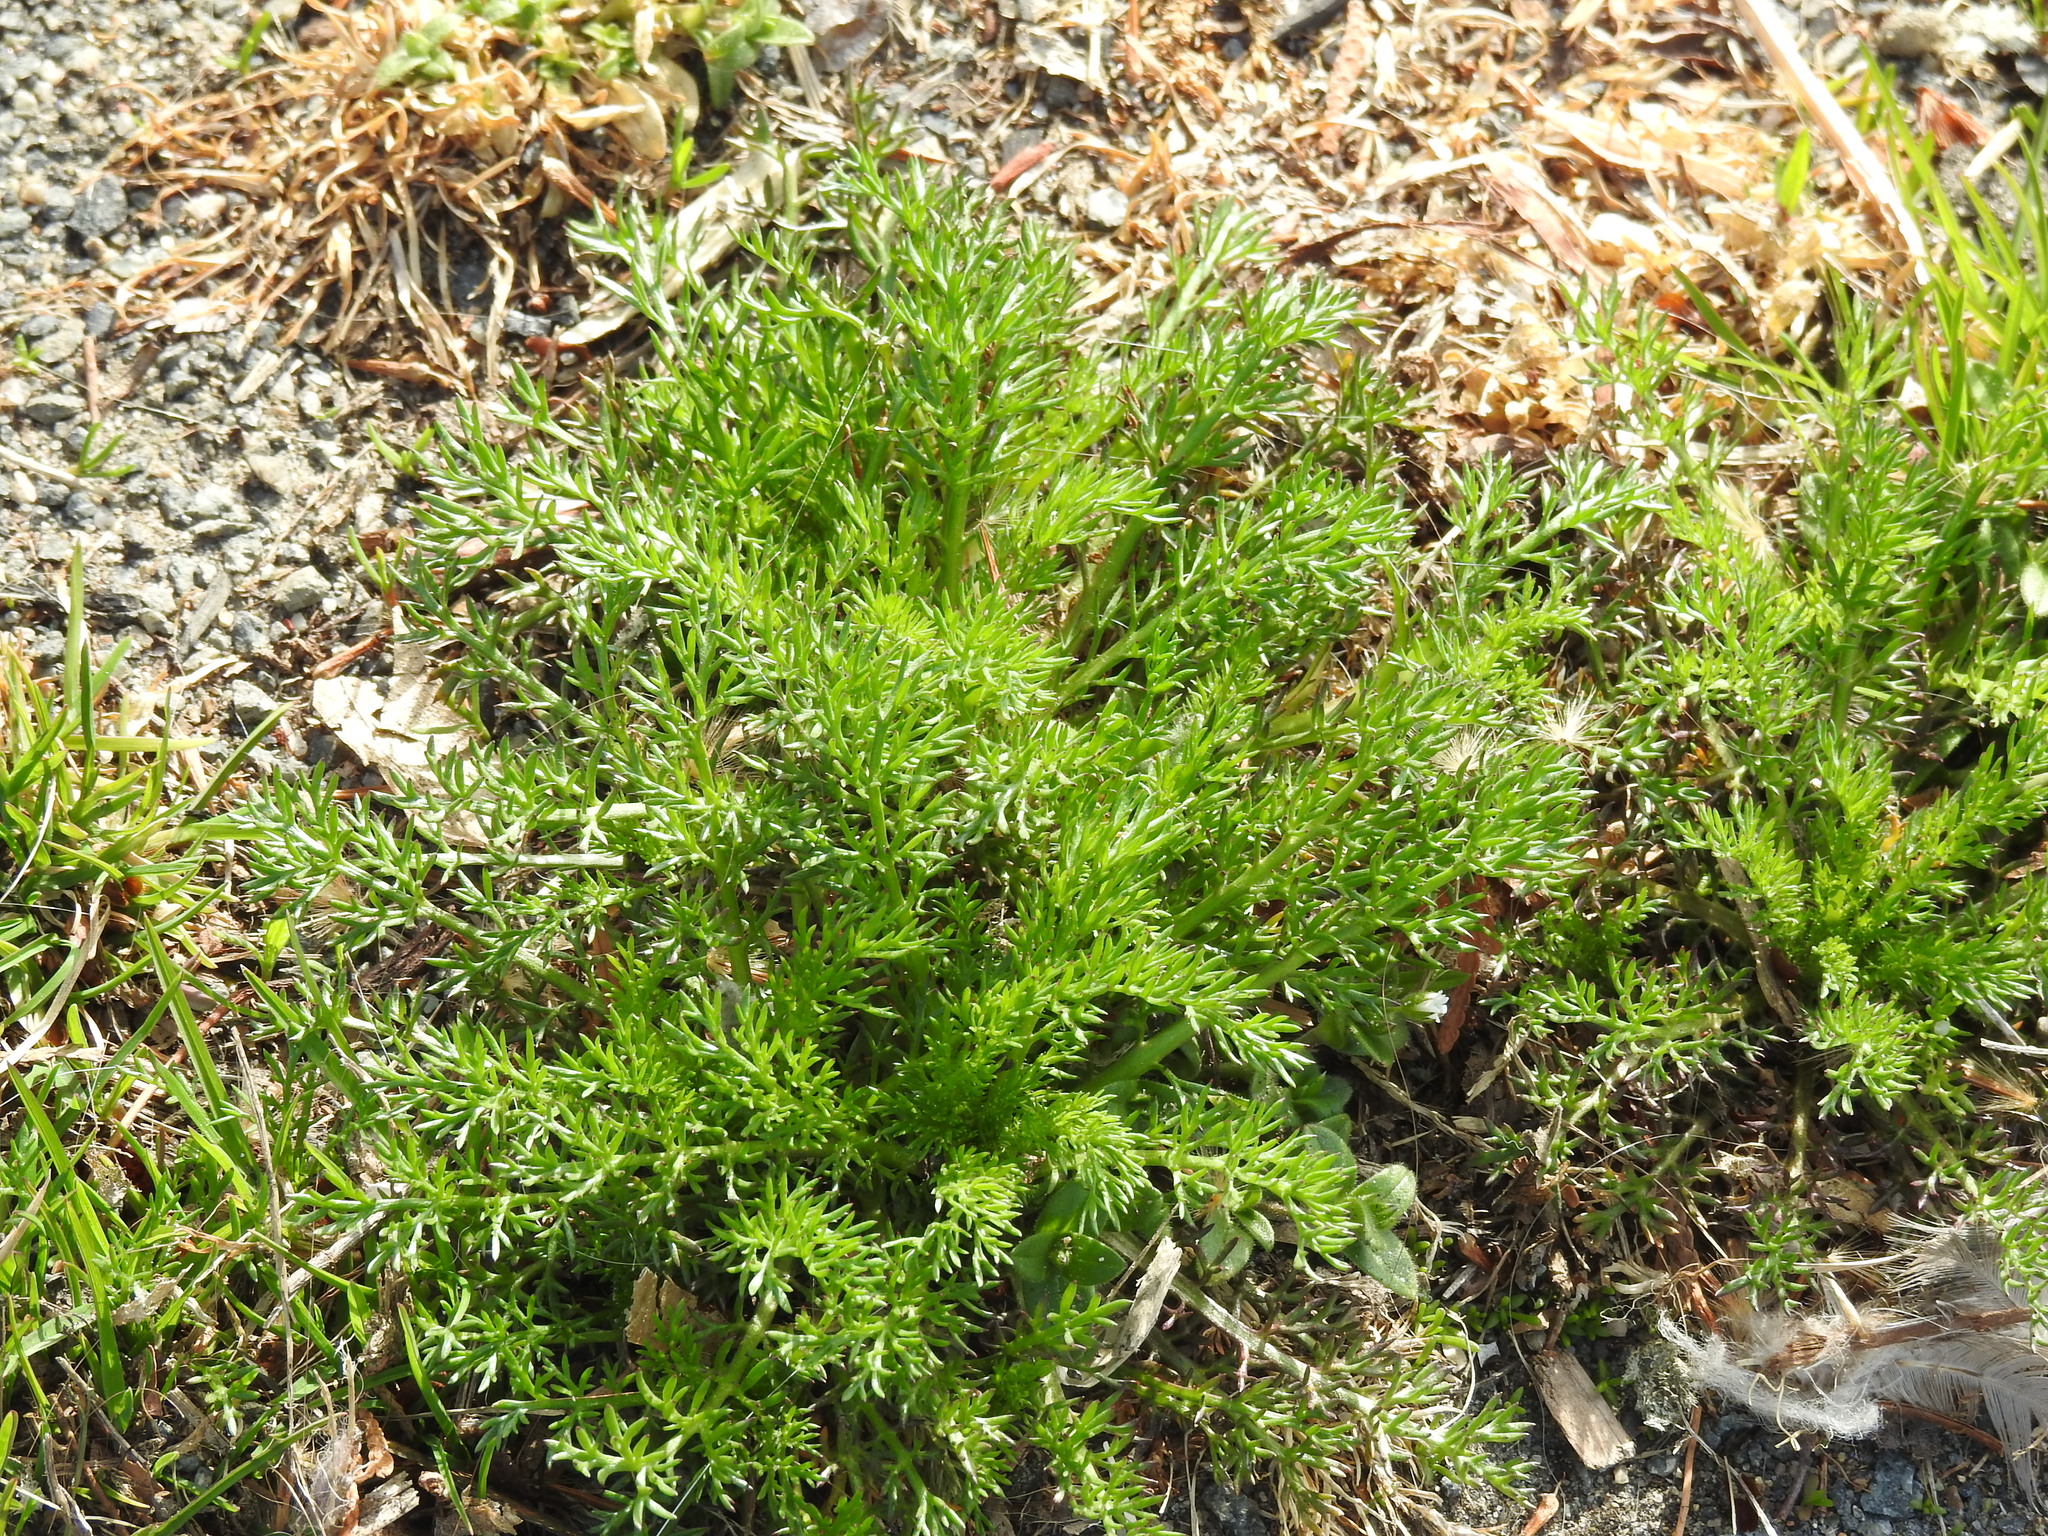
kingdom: Plantae
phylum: Tracheophyta
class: Magnoliopsida
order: Asterales
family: Asteraceae
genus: Matricaria
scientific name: Matricaria discoidea
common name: Disc mayweed
